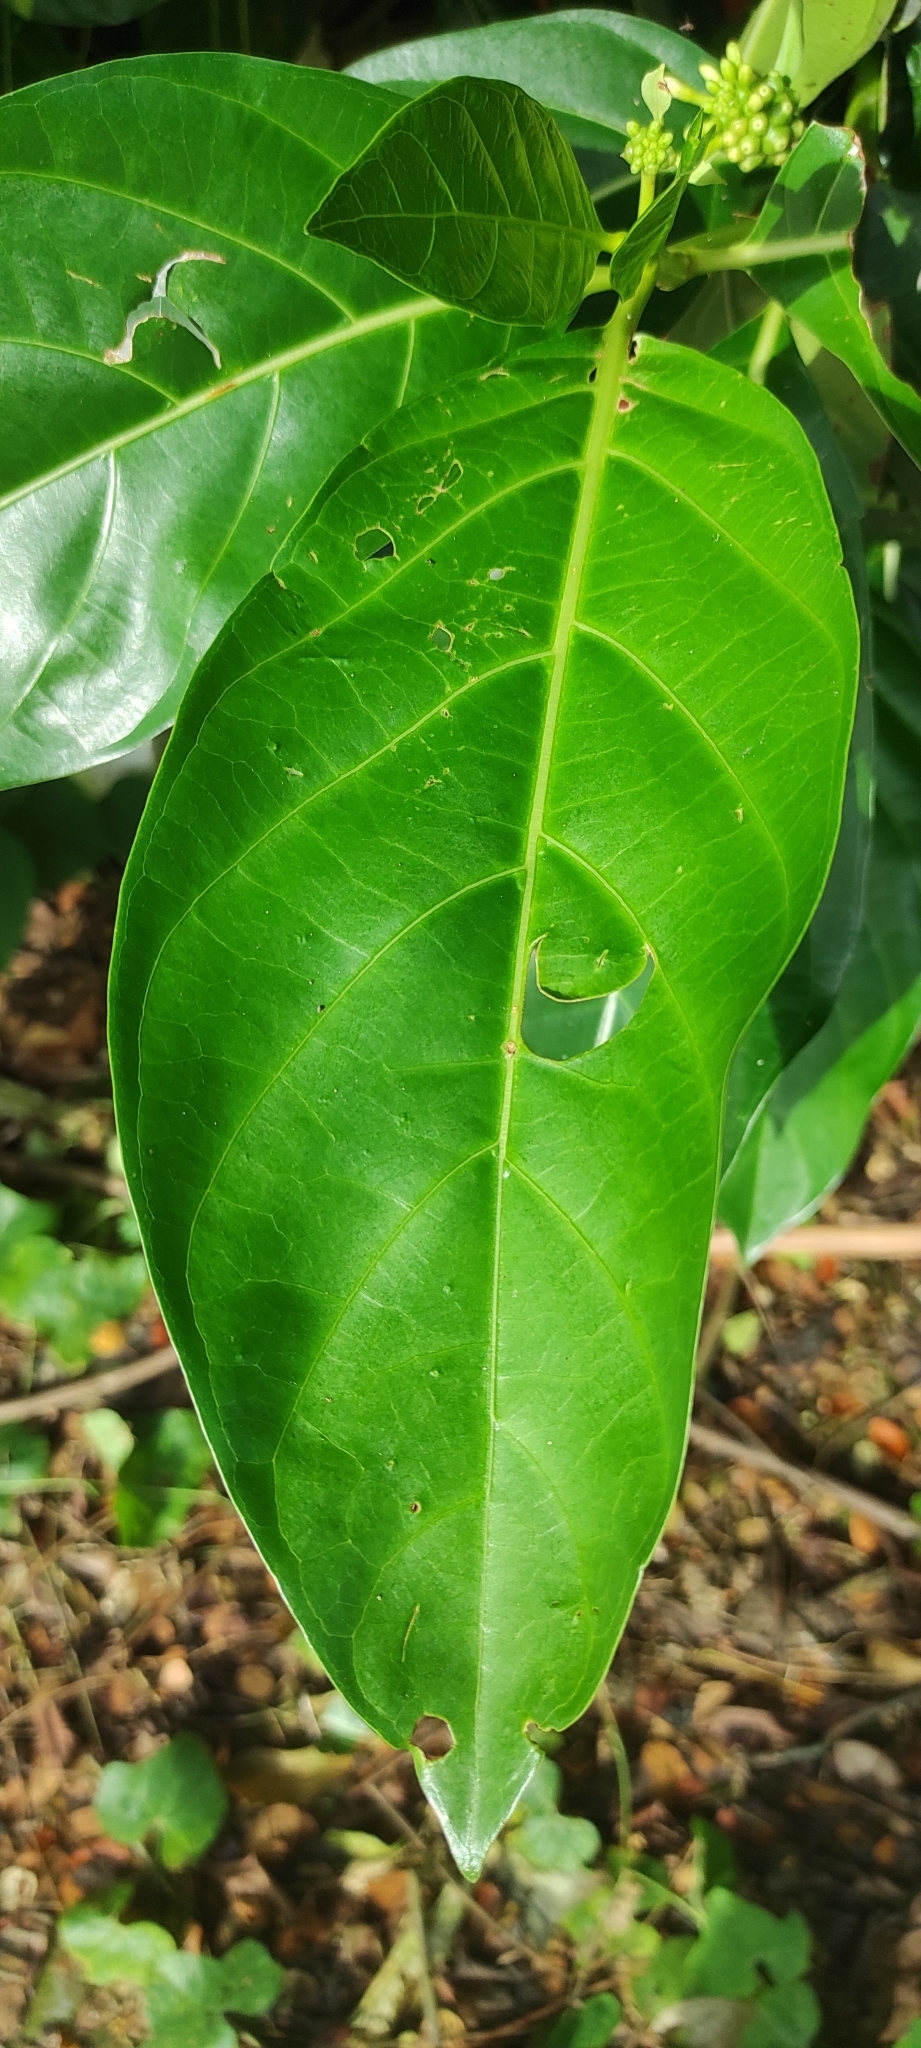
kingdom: Plantae
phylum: Tracheophyta
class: Magnoliopsida
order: Gentianales
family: Rubiaceae
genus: Morinda
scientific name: Morinda citrifolia
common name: Indian-mulberry
